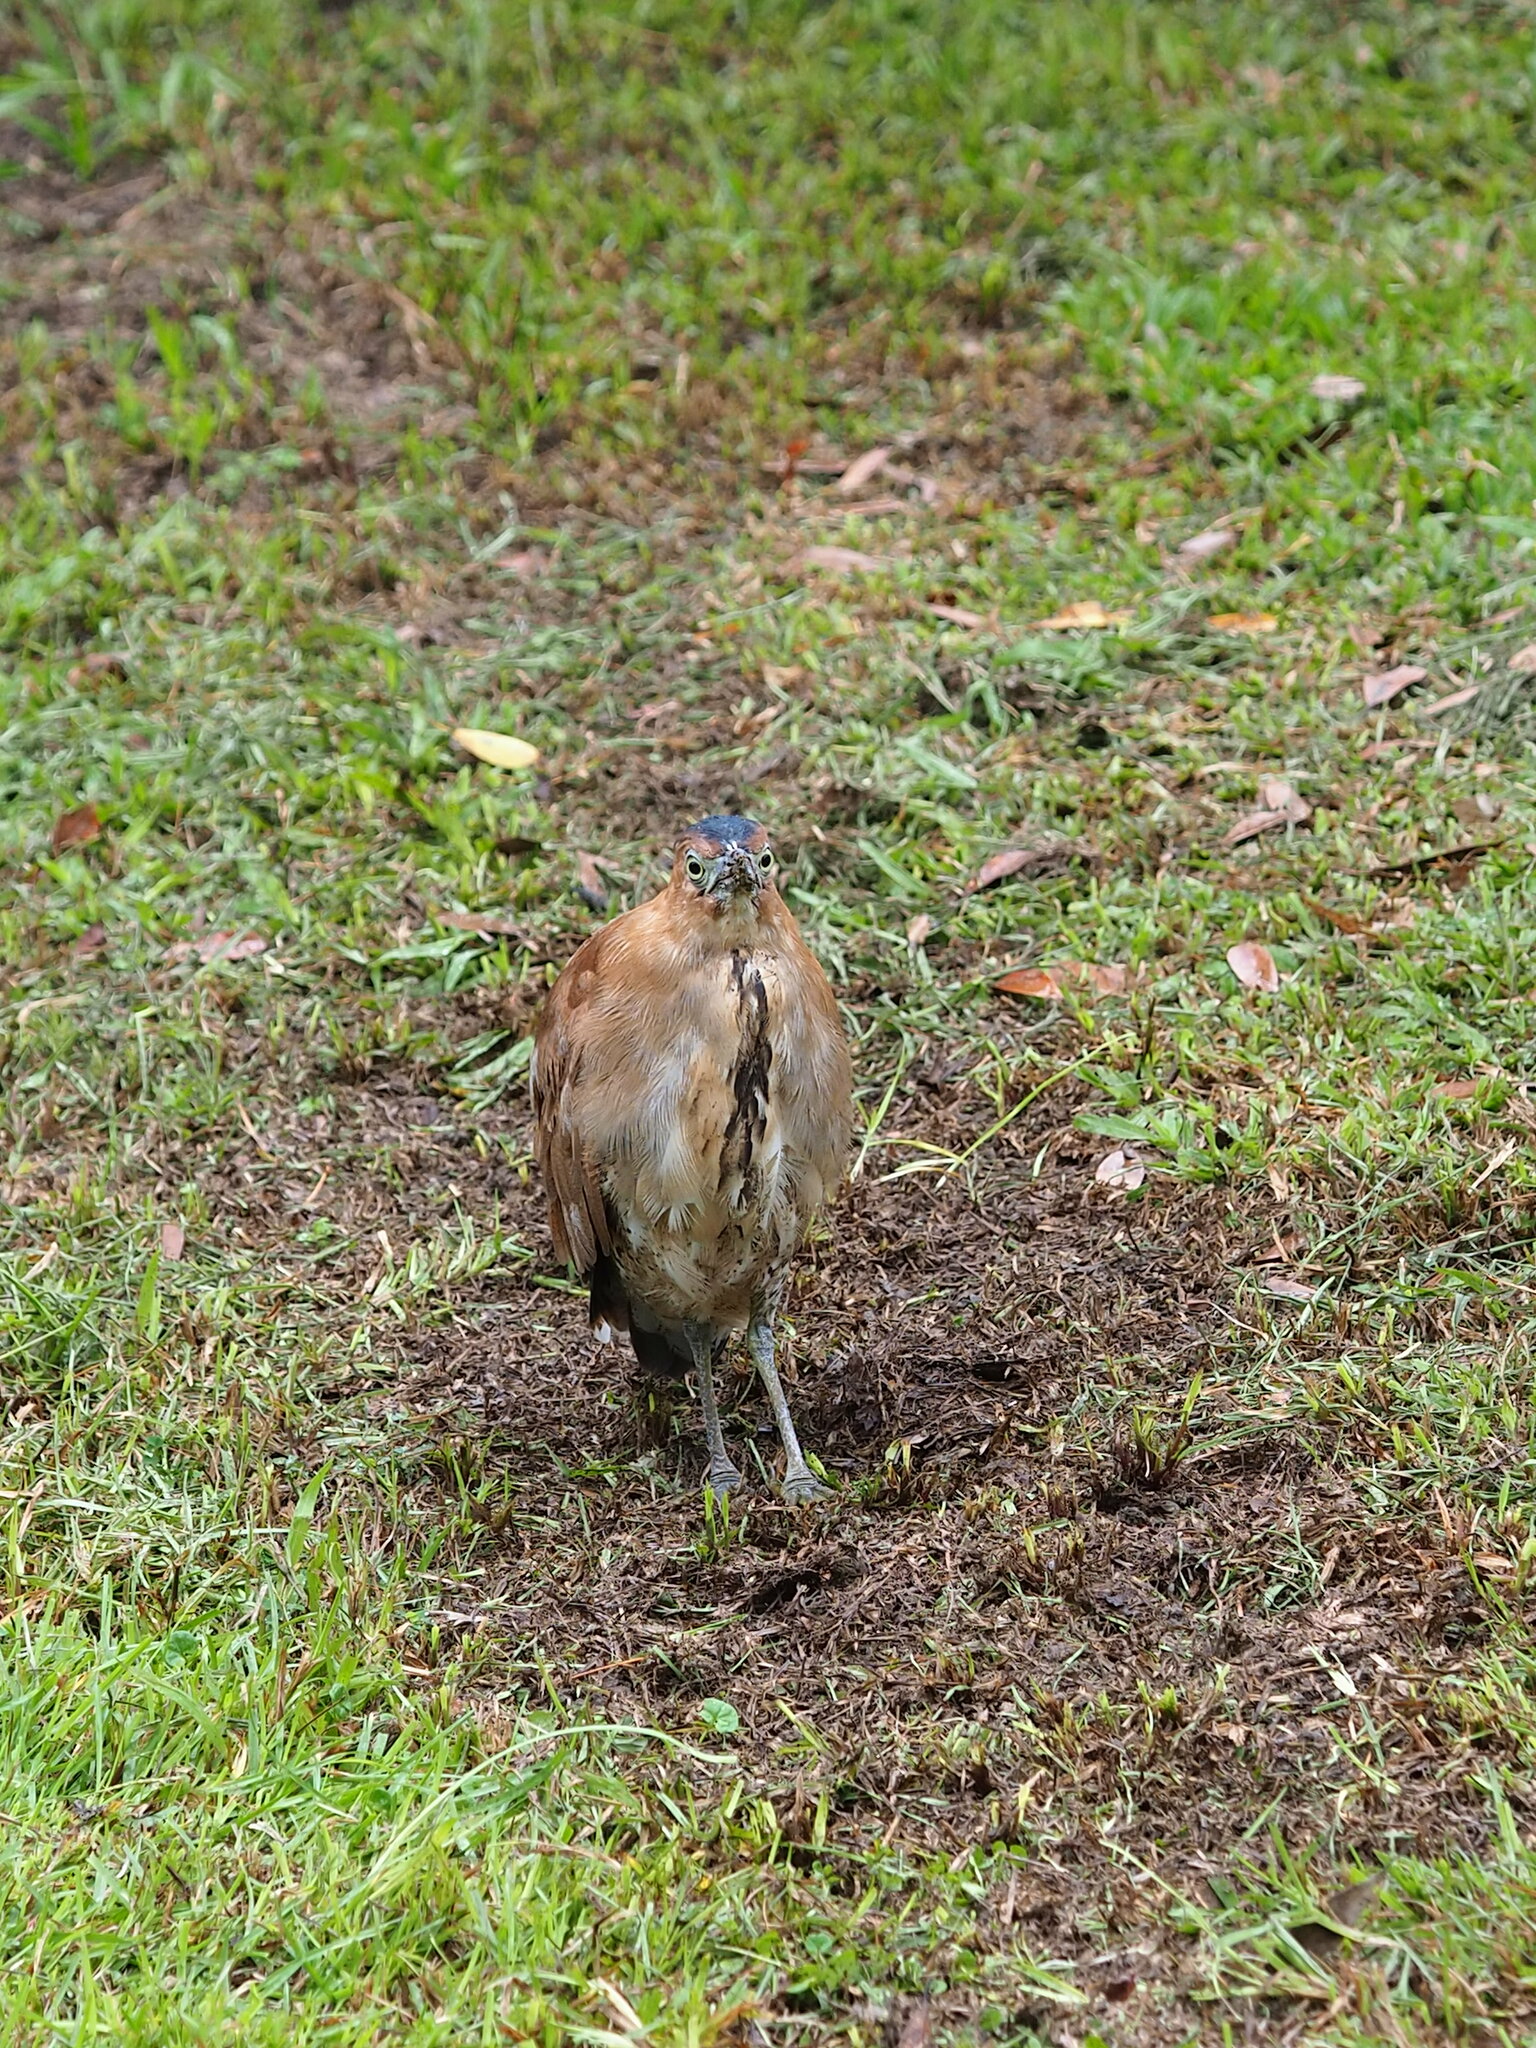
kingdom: Animalia
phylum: Chordata
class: Aves
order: Pelecaniformes
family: Ardeidae
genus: Gorsachius
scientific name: Gorsachius melanolophus
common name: Malayan night heron
